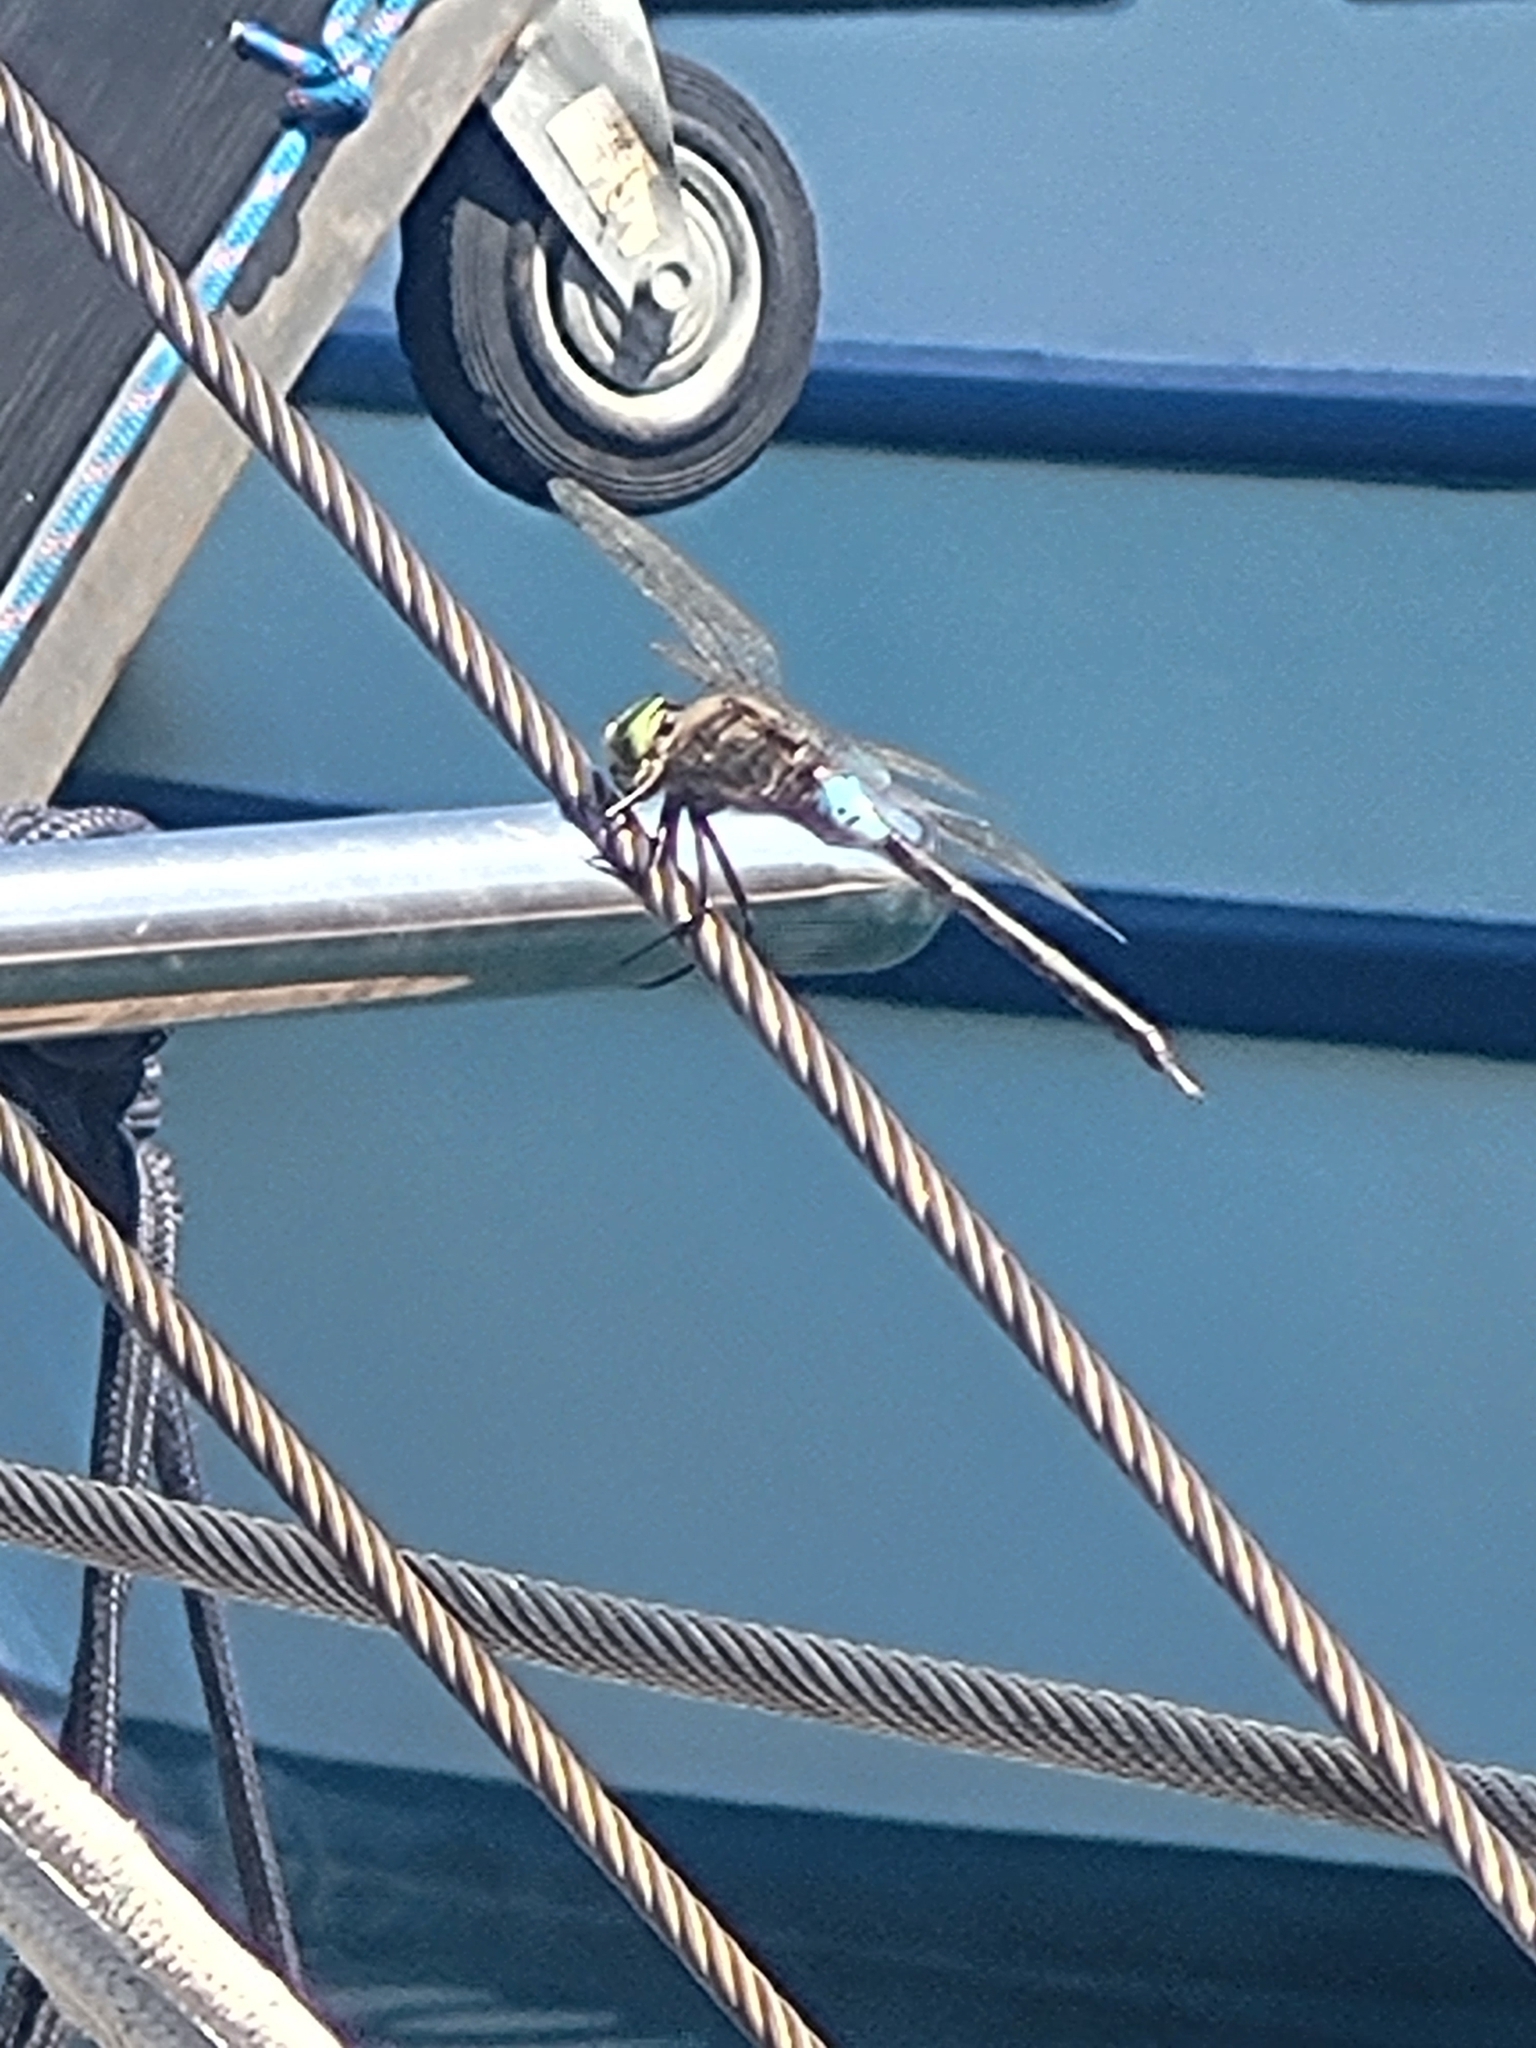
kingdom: Animalia
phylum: Arthropoda
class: Insecta
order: Odonata
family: Aeshnidae
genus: Anax
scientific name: Anax parthenope
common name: Lesser emperor
